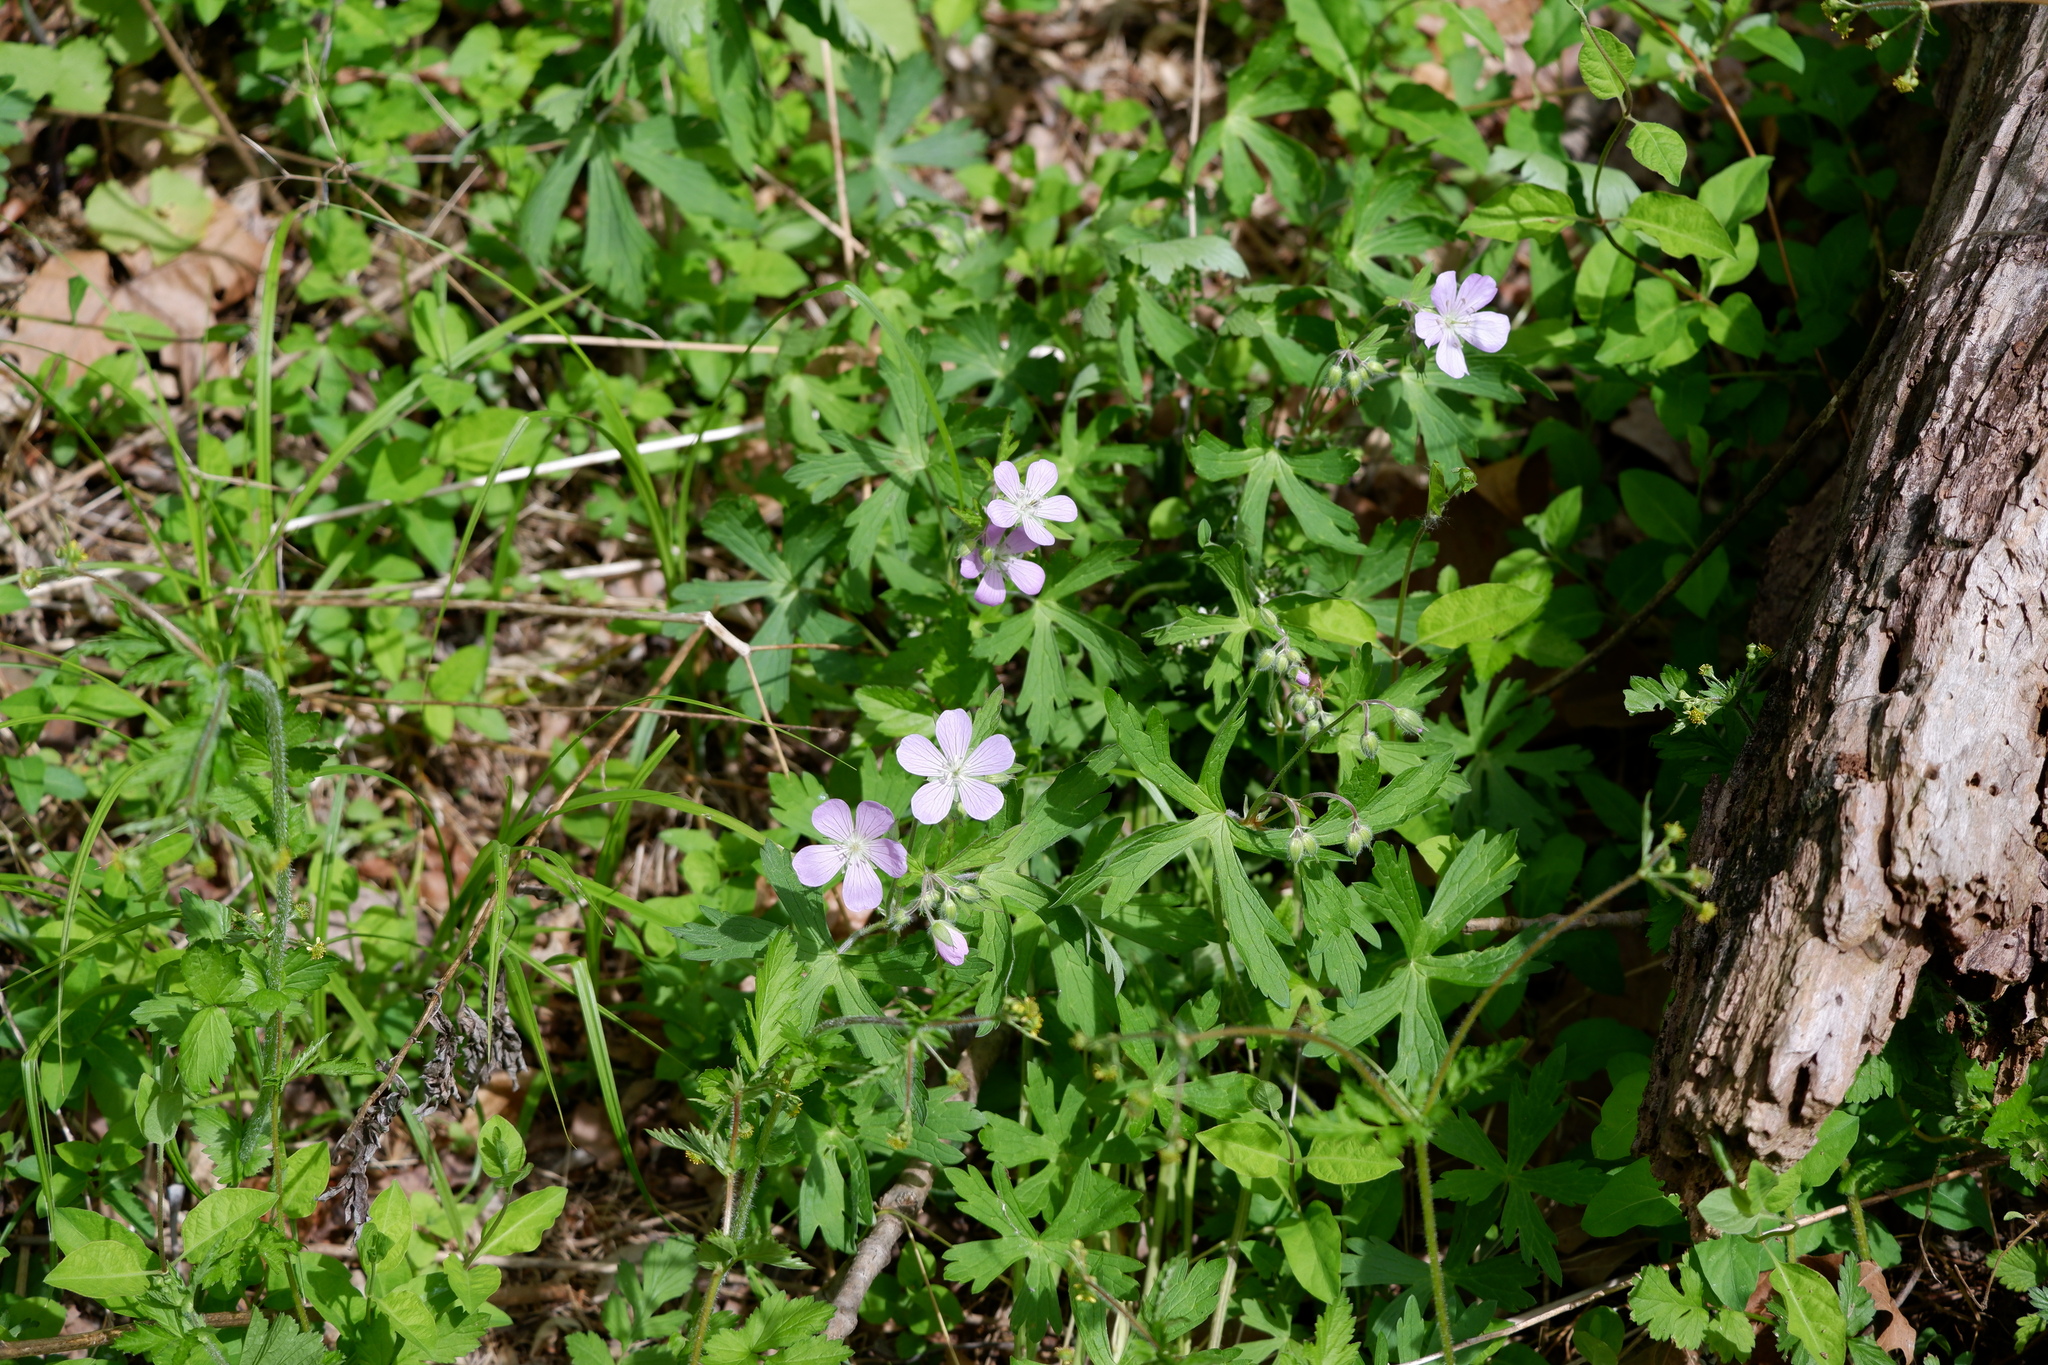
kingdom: Plantae
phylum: Tracheophyta
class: Magnoliopsida
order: Geraniales
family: Geraniaceae
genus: Geranium
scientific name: Geranium maculatum
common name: Spotted geranium
